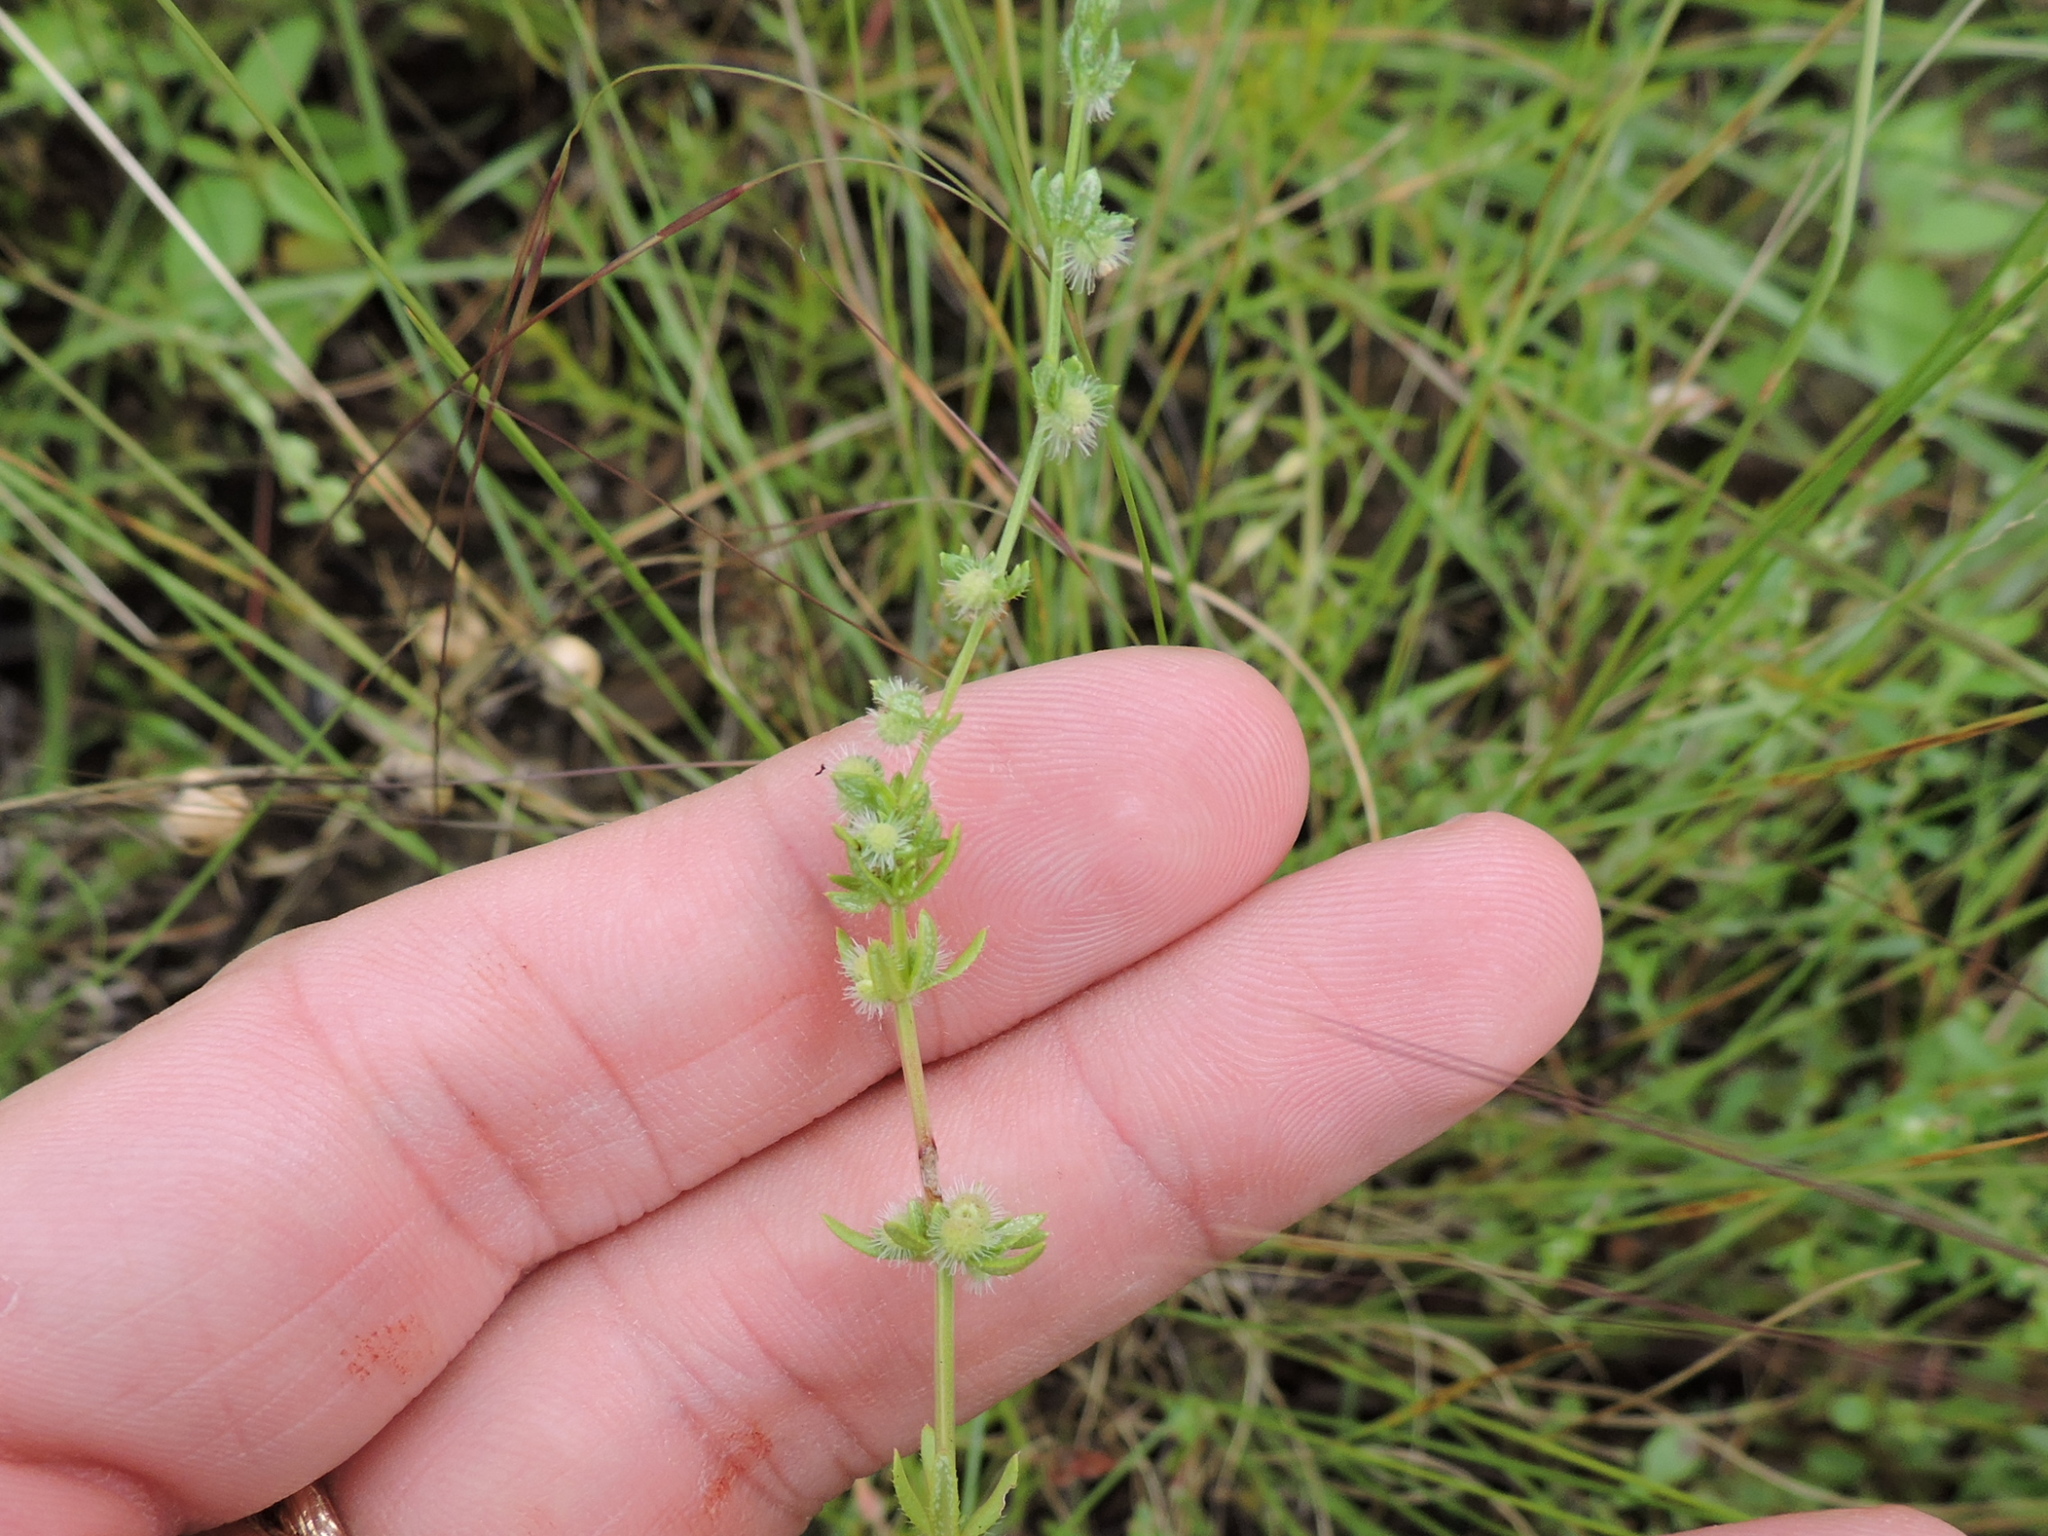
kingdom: Plantae
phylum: Tracheophyta
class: Magnoliopsida
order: Gentianales
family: Rubiaceae
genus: Galium
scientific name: Galium virgatum
